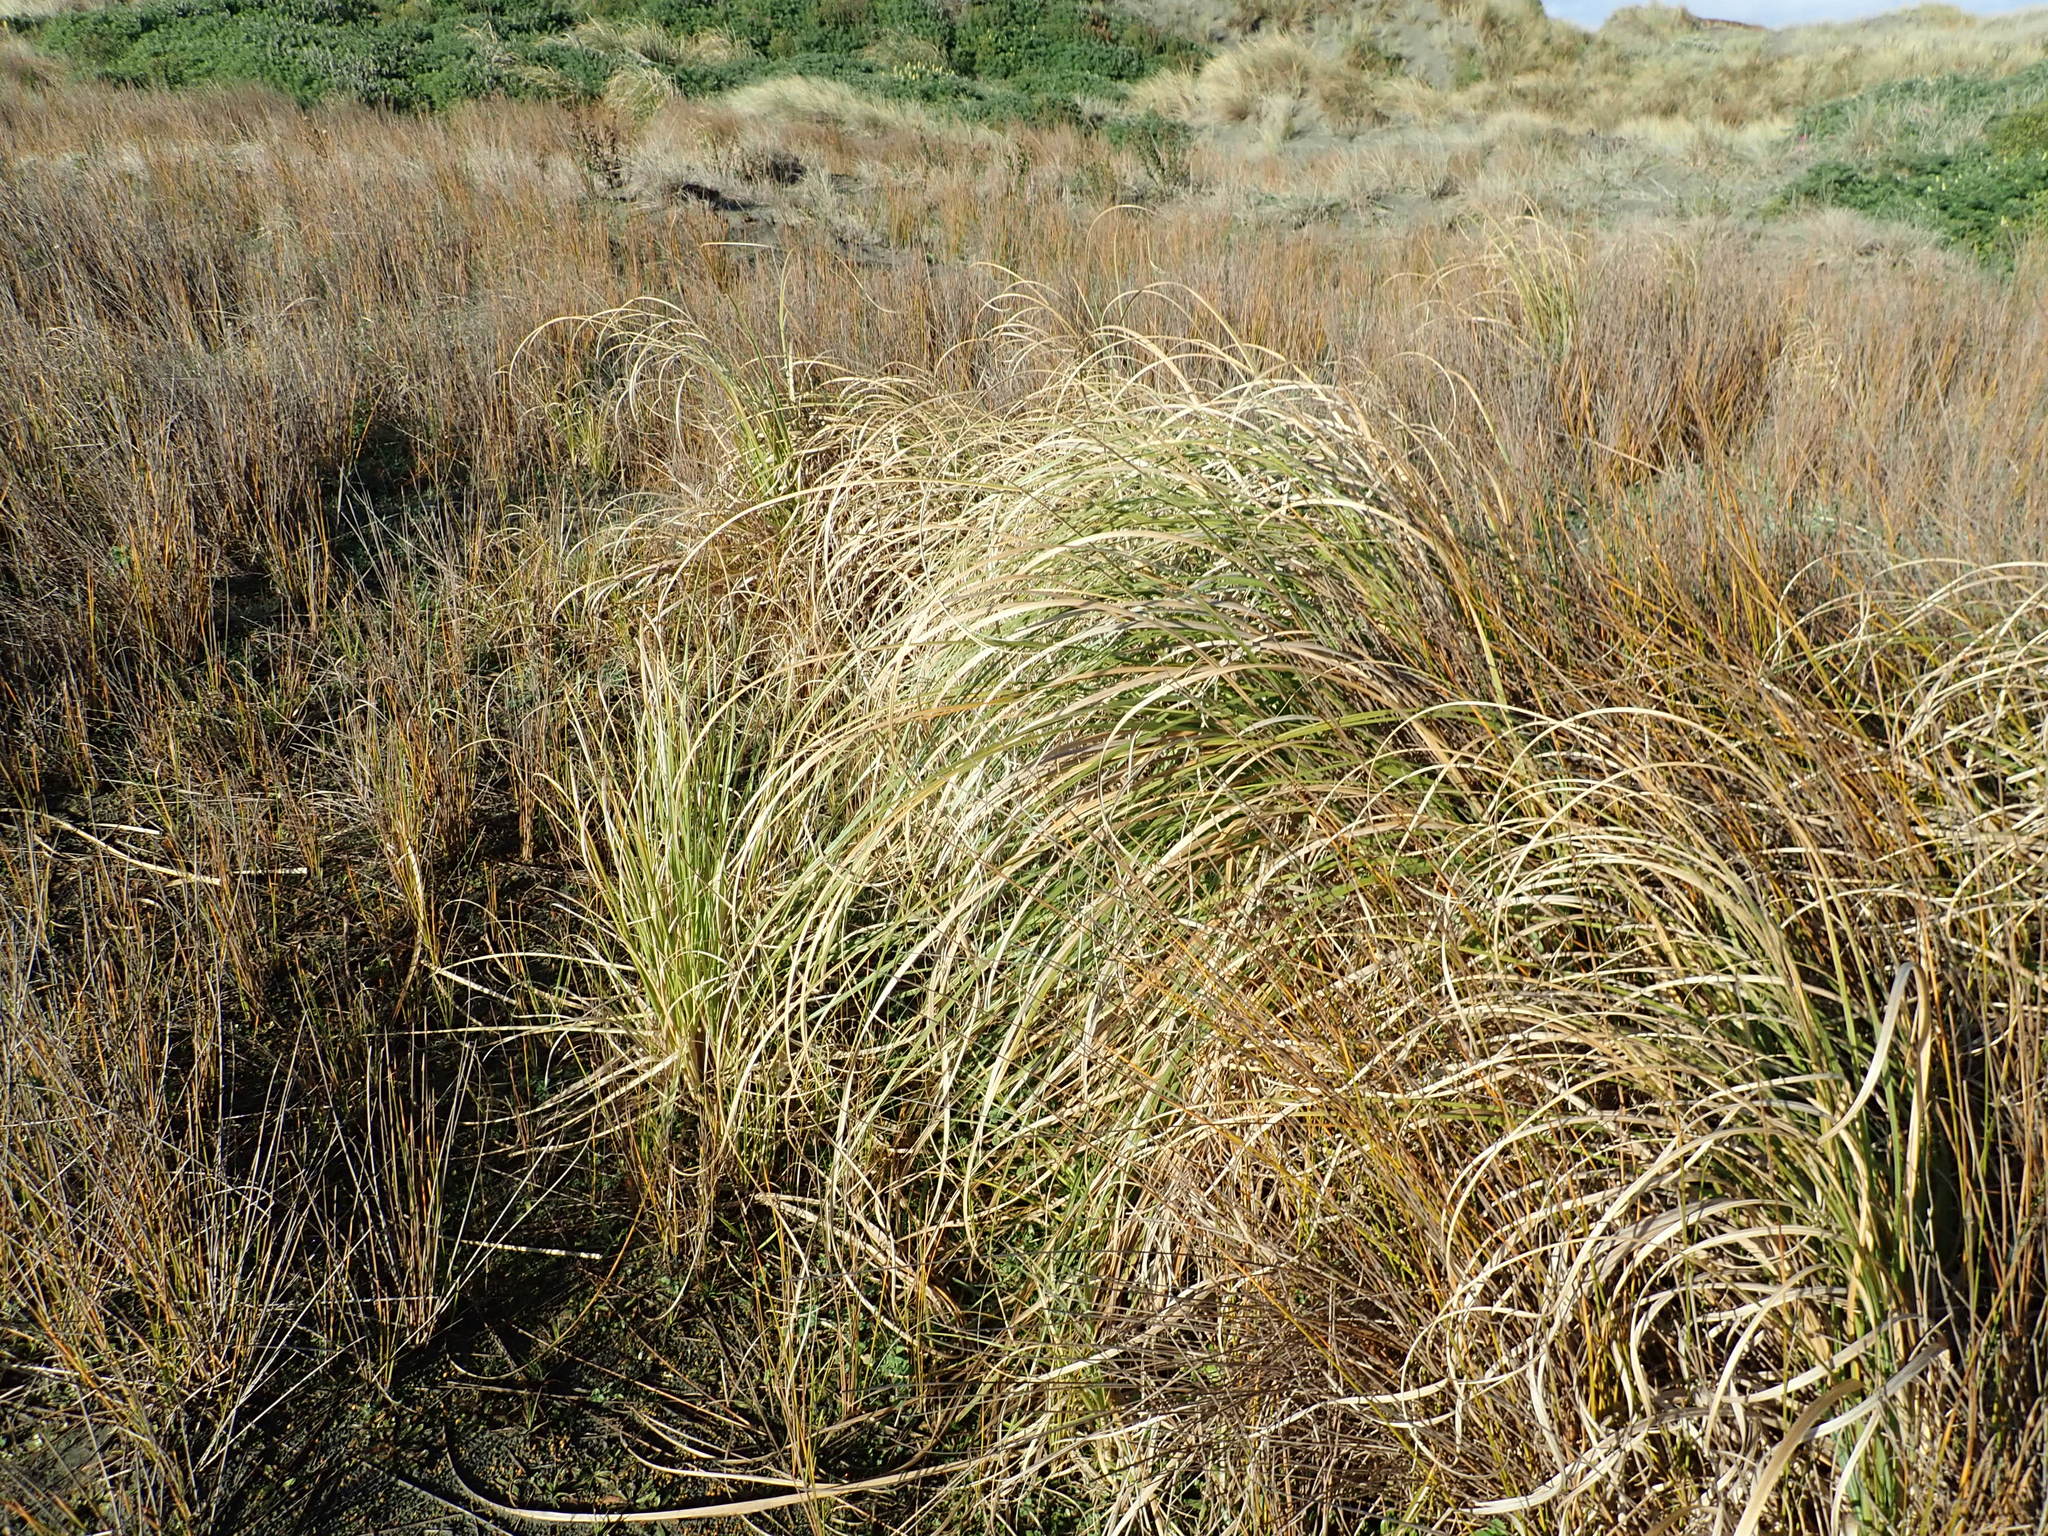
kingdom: Plantae
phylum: Tracheophyta
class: Liliopsida
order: Poales
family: Poaceae
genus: Cortaderia
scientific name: Cortaderia selloana
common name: Uruguayan pampas grass
